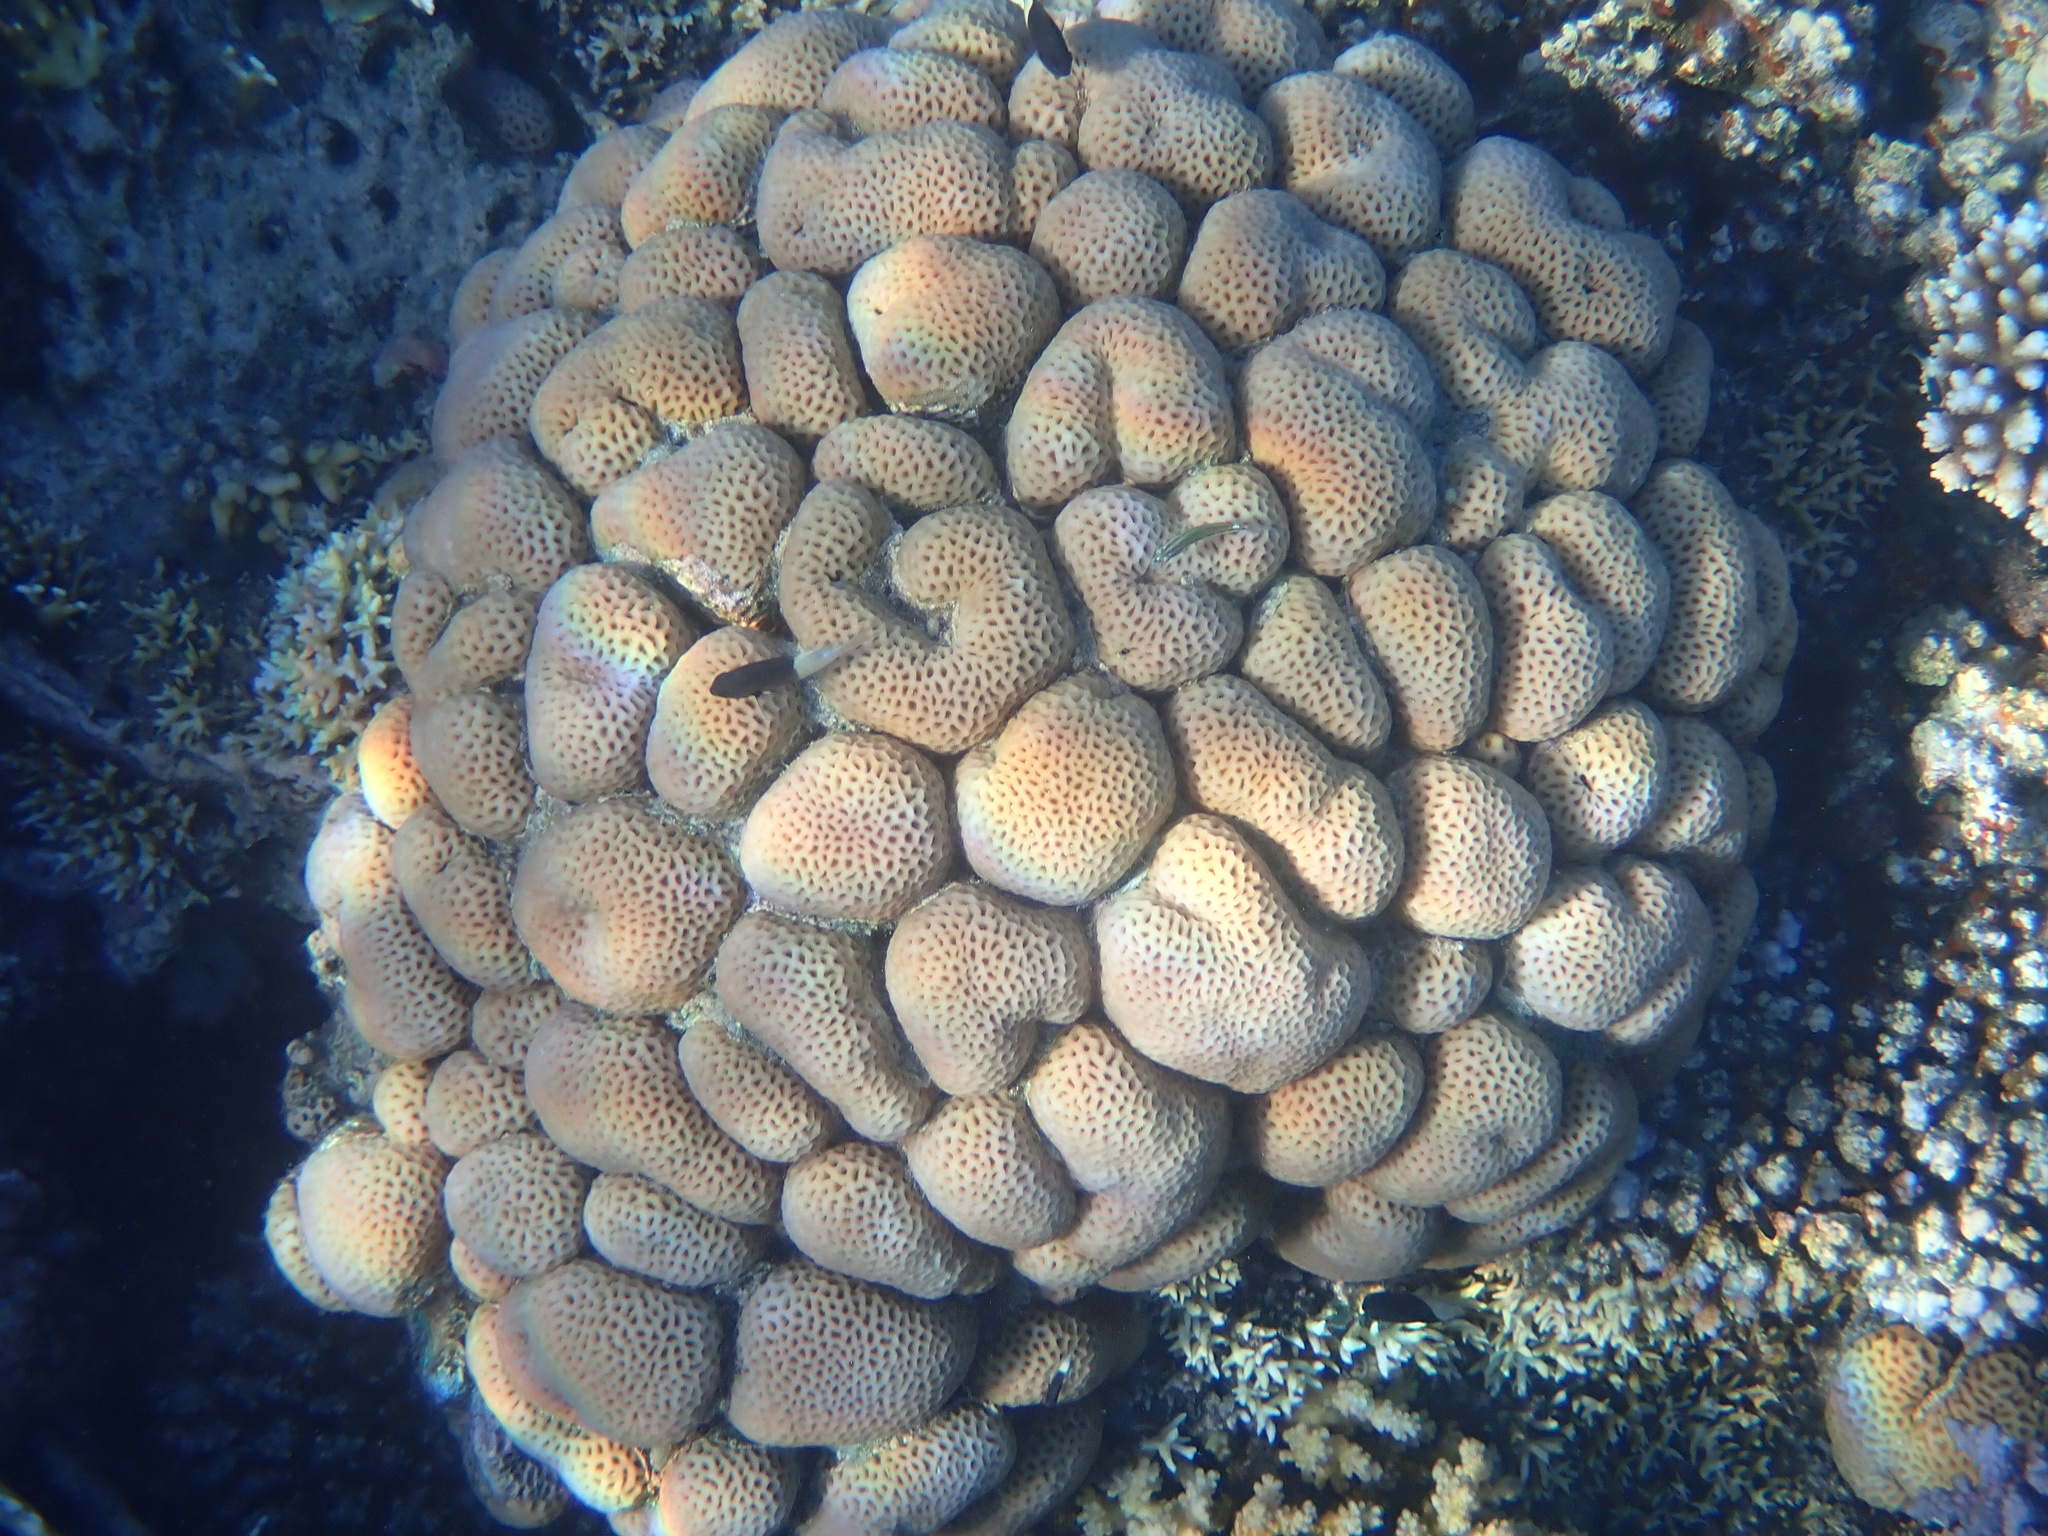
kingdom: Animalia
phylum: Cnidaria
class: Anthozoa
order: Scleractinia
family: Merulinidae
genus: Goniastrea
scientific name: Goniastrea pectinata
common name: Lesser star coral
